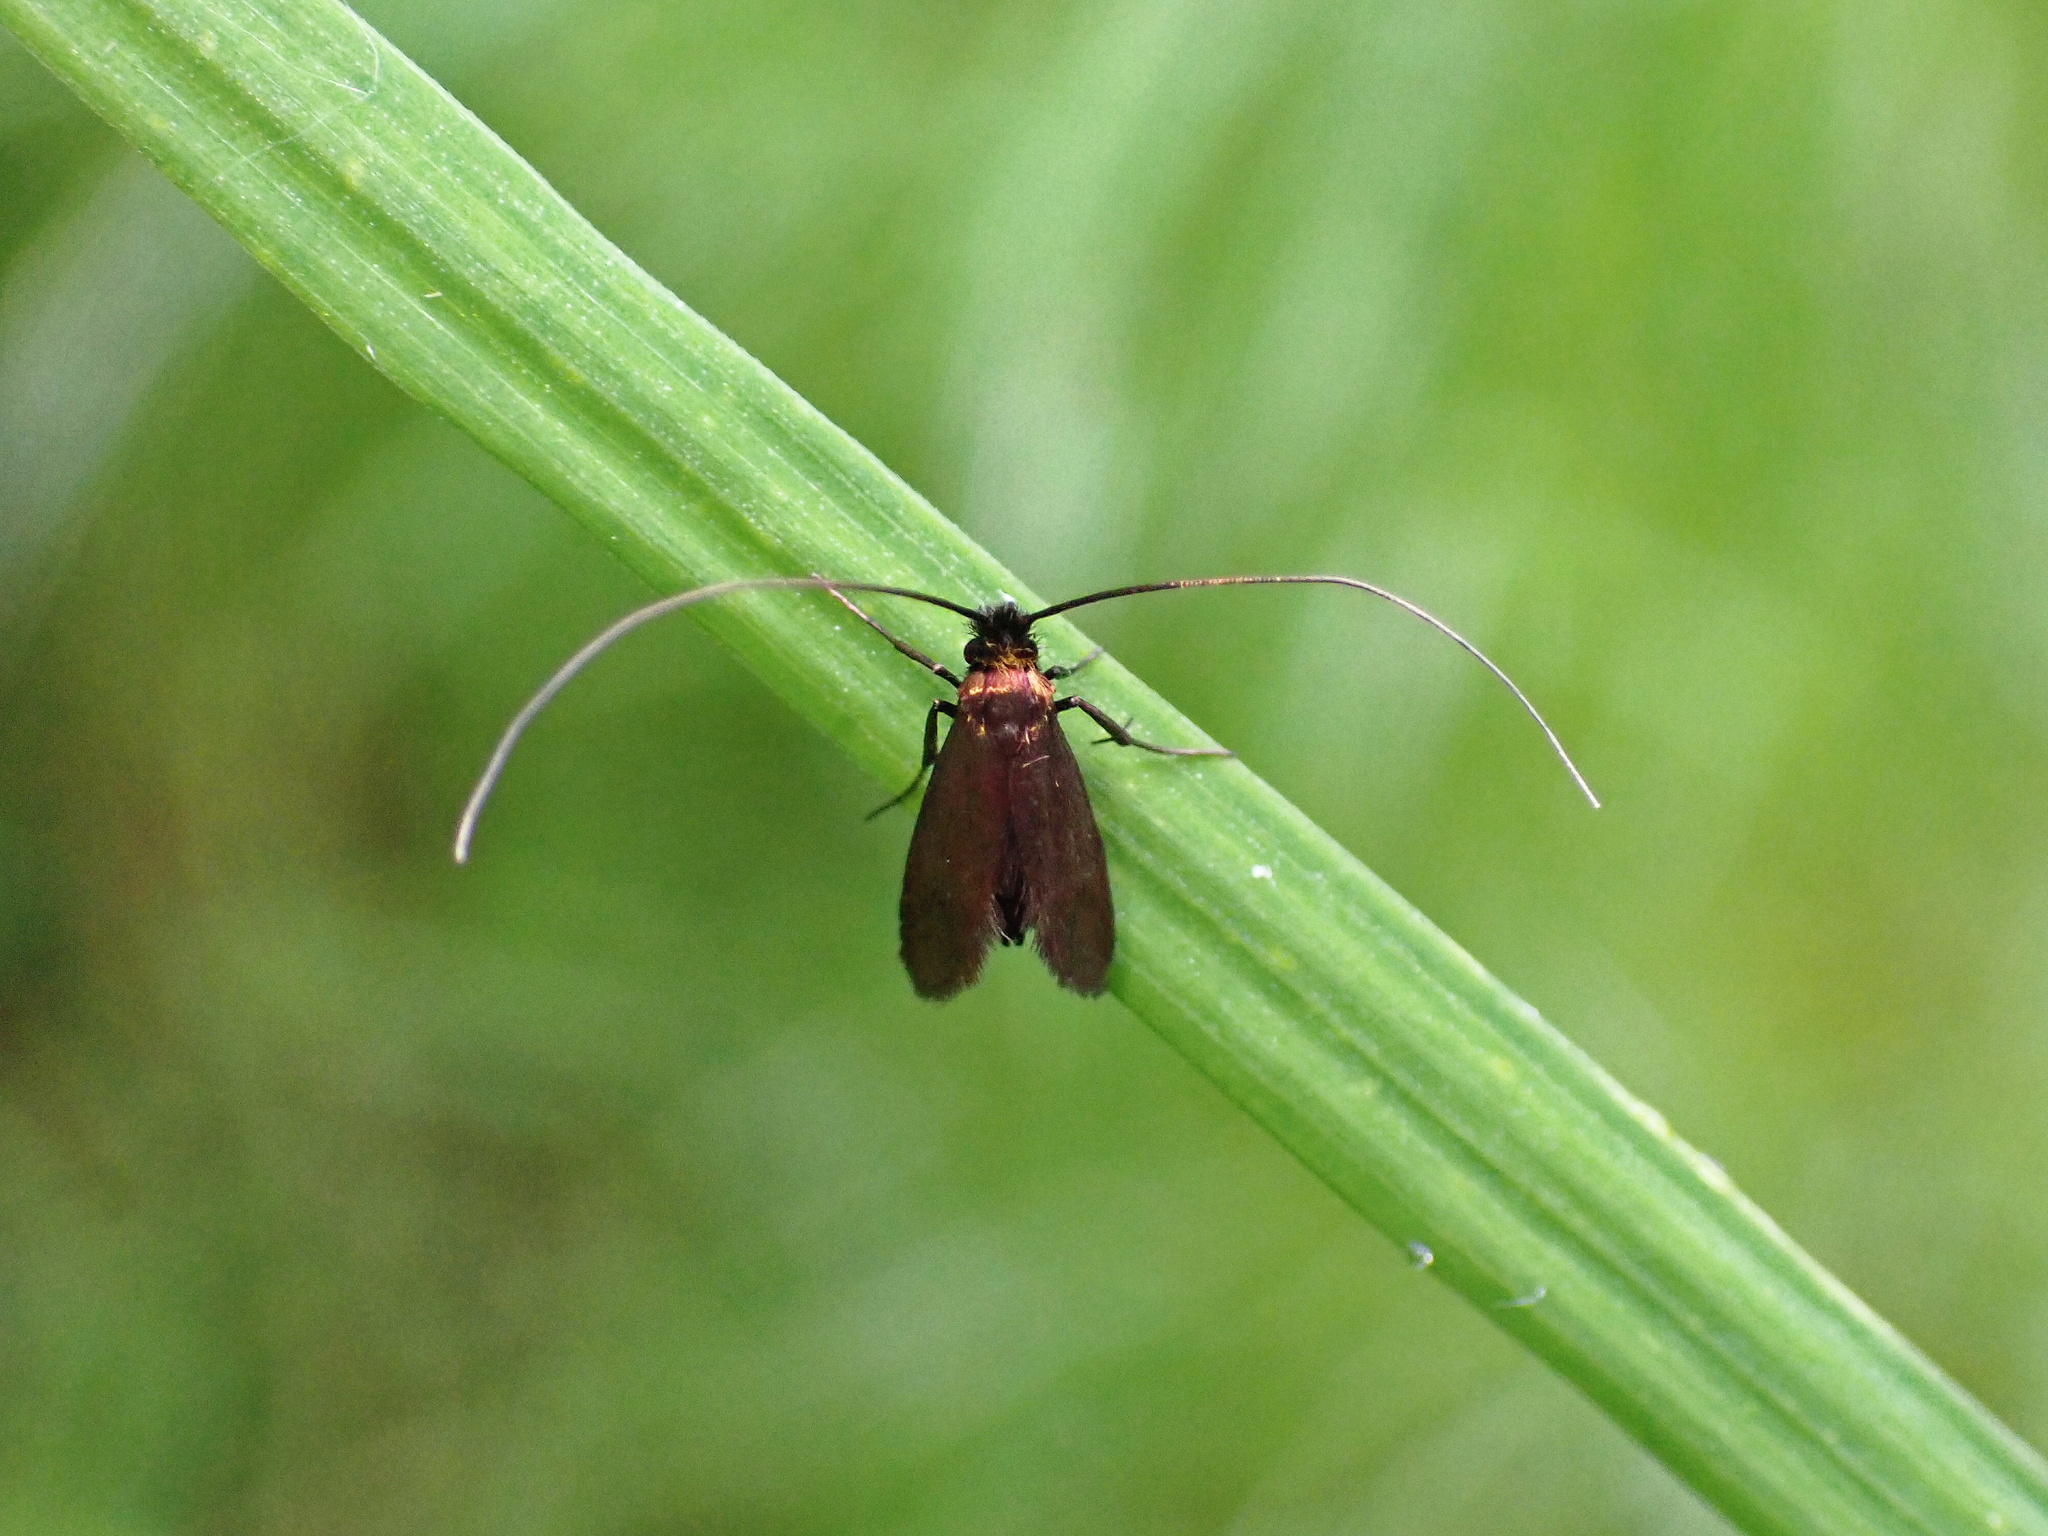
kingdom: Animalia
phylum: Arthropoda
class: Insecta
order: Lepidoptera
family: Adelidae
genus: Cauchas
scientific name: Cauchas rufimitrella
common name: Meadow long-horn
